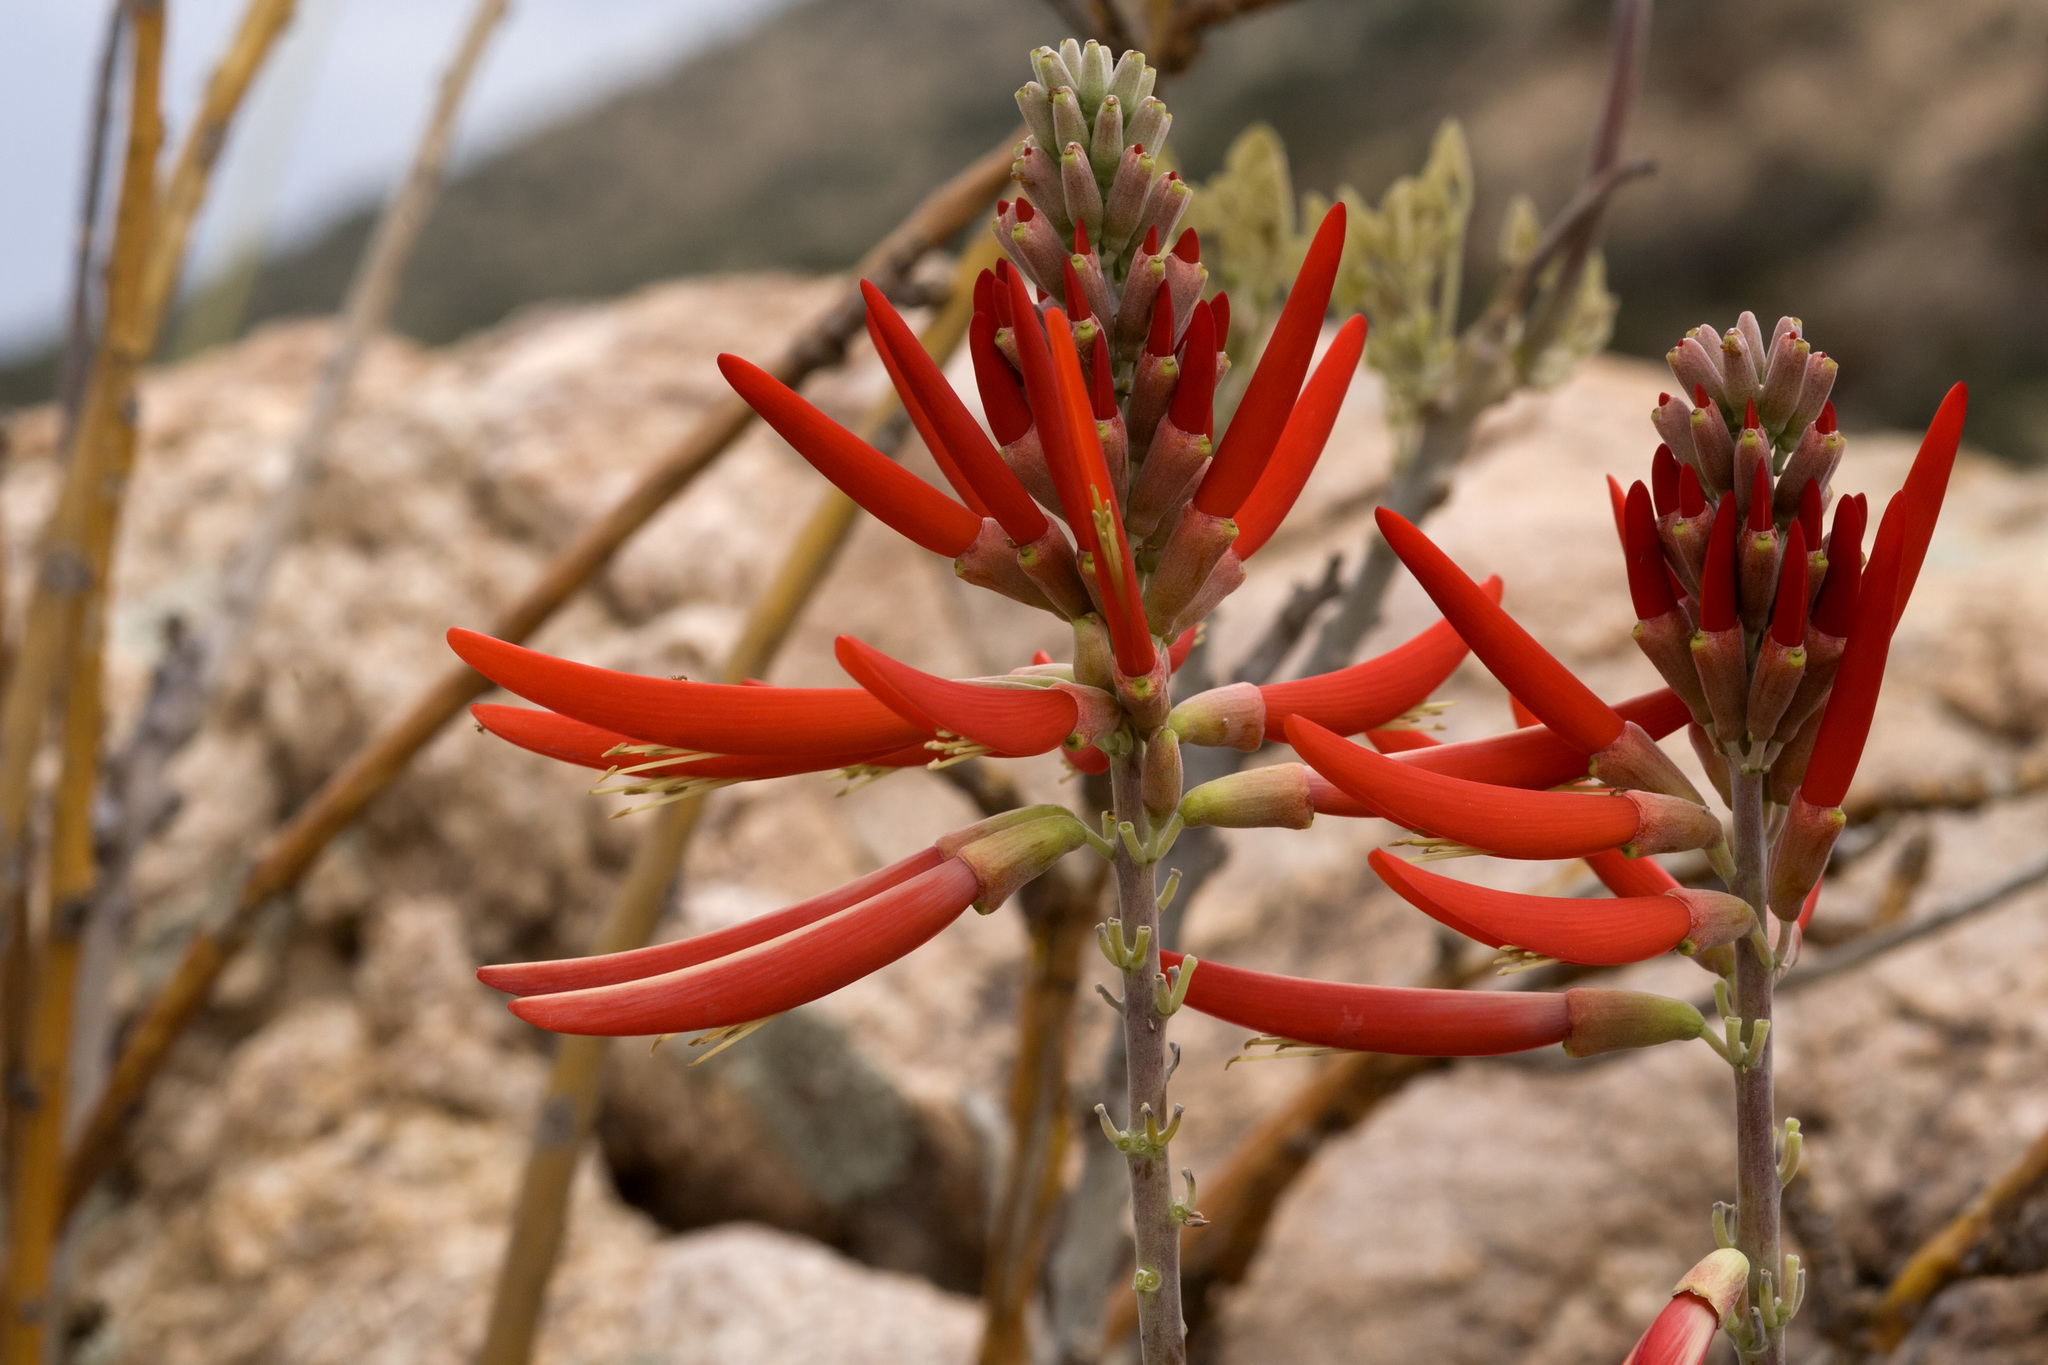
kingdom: Plantae
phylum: Tracheophyta
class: Magnoliopsida
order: Fabales
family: Fabaceae
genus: Erythrina
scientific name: Erythrina flabelliformis
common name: Chilicote
